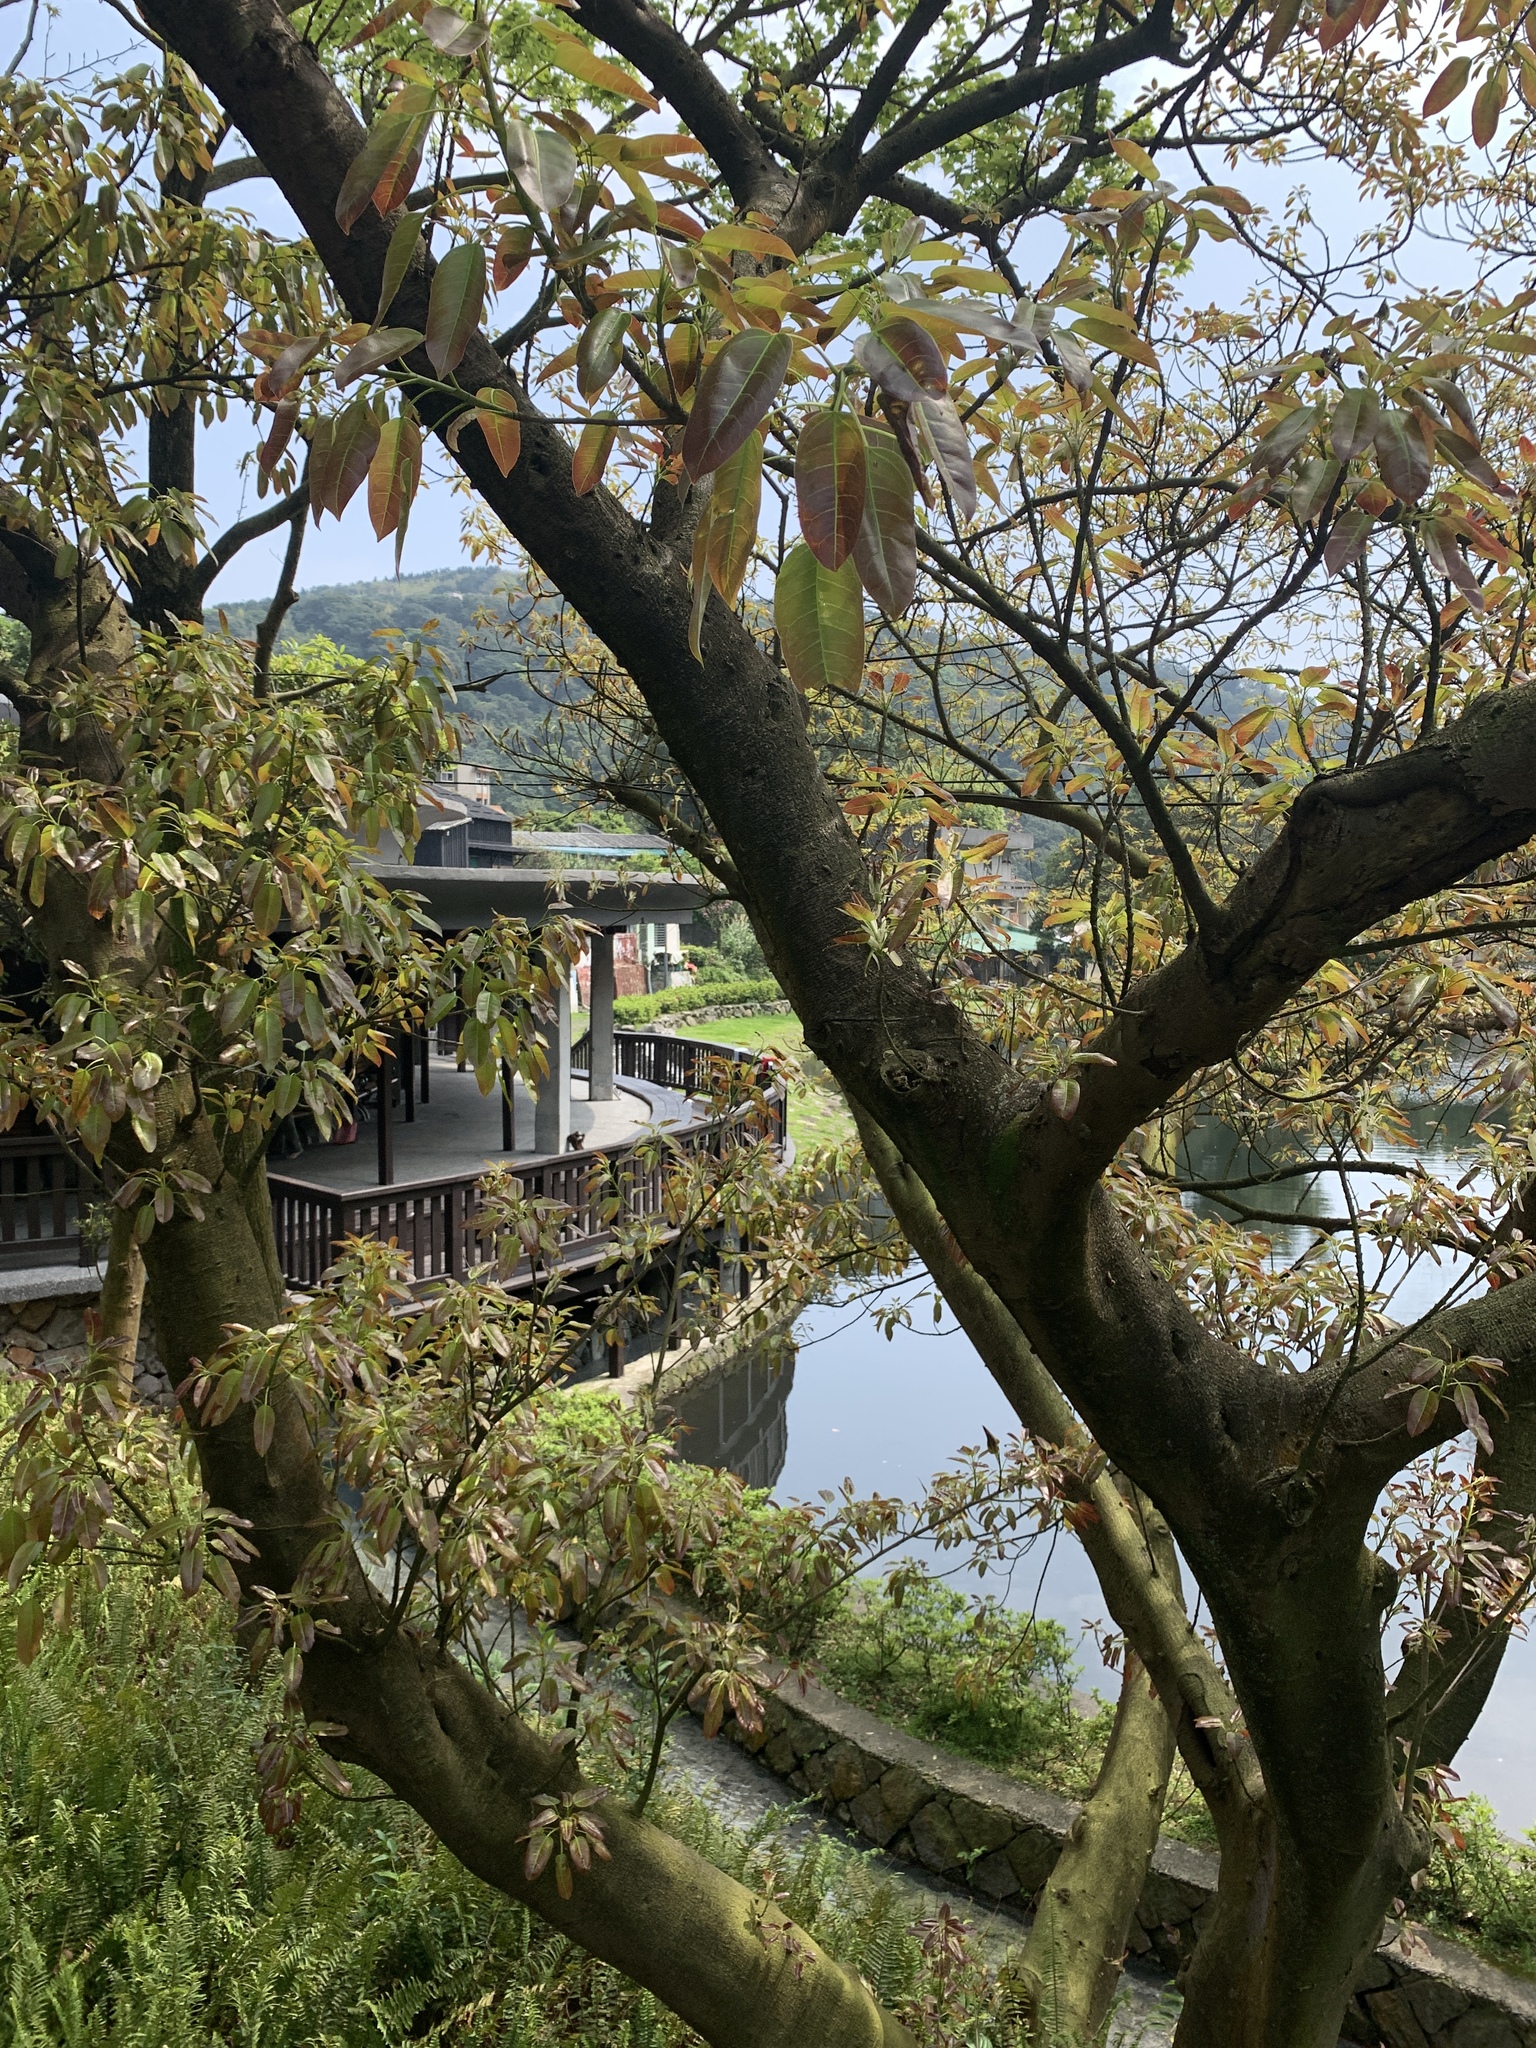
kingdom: Plantae
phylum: Tracheophyta
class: Magnoliopsida
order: Rosales
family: Moraceae
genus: Ficus
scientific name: Ficus subpisocarpa
